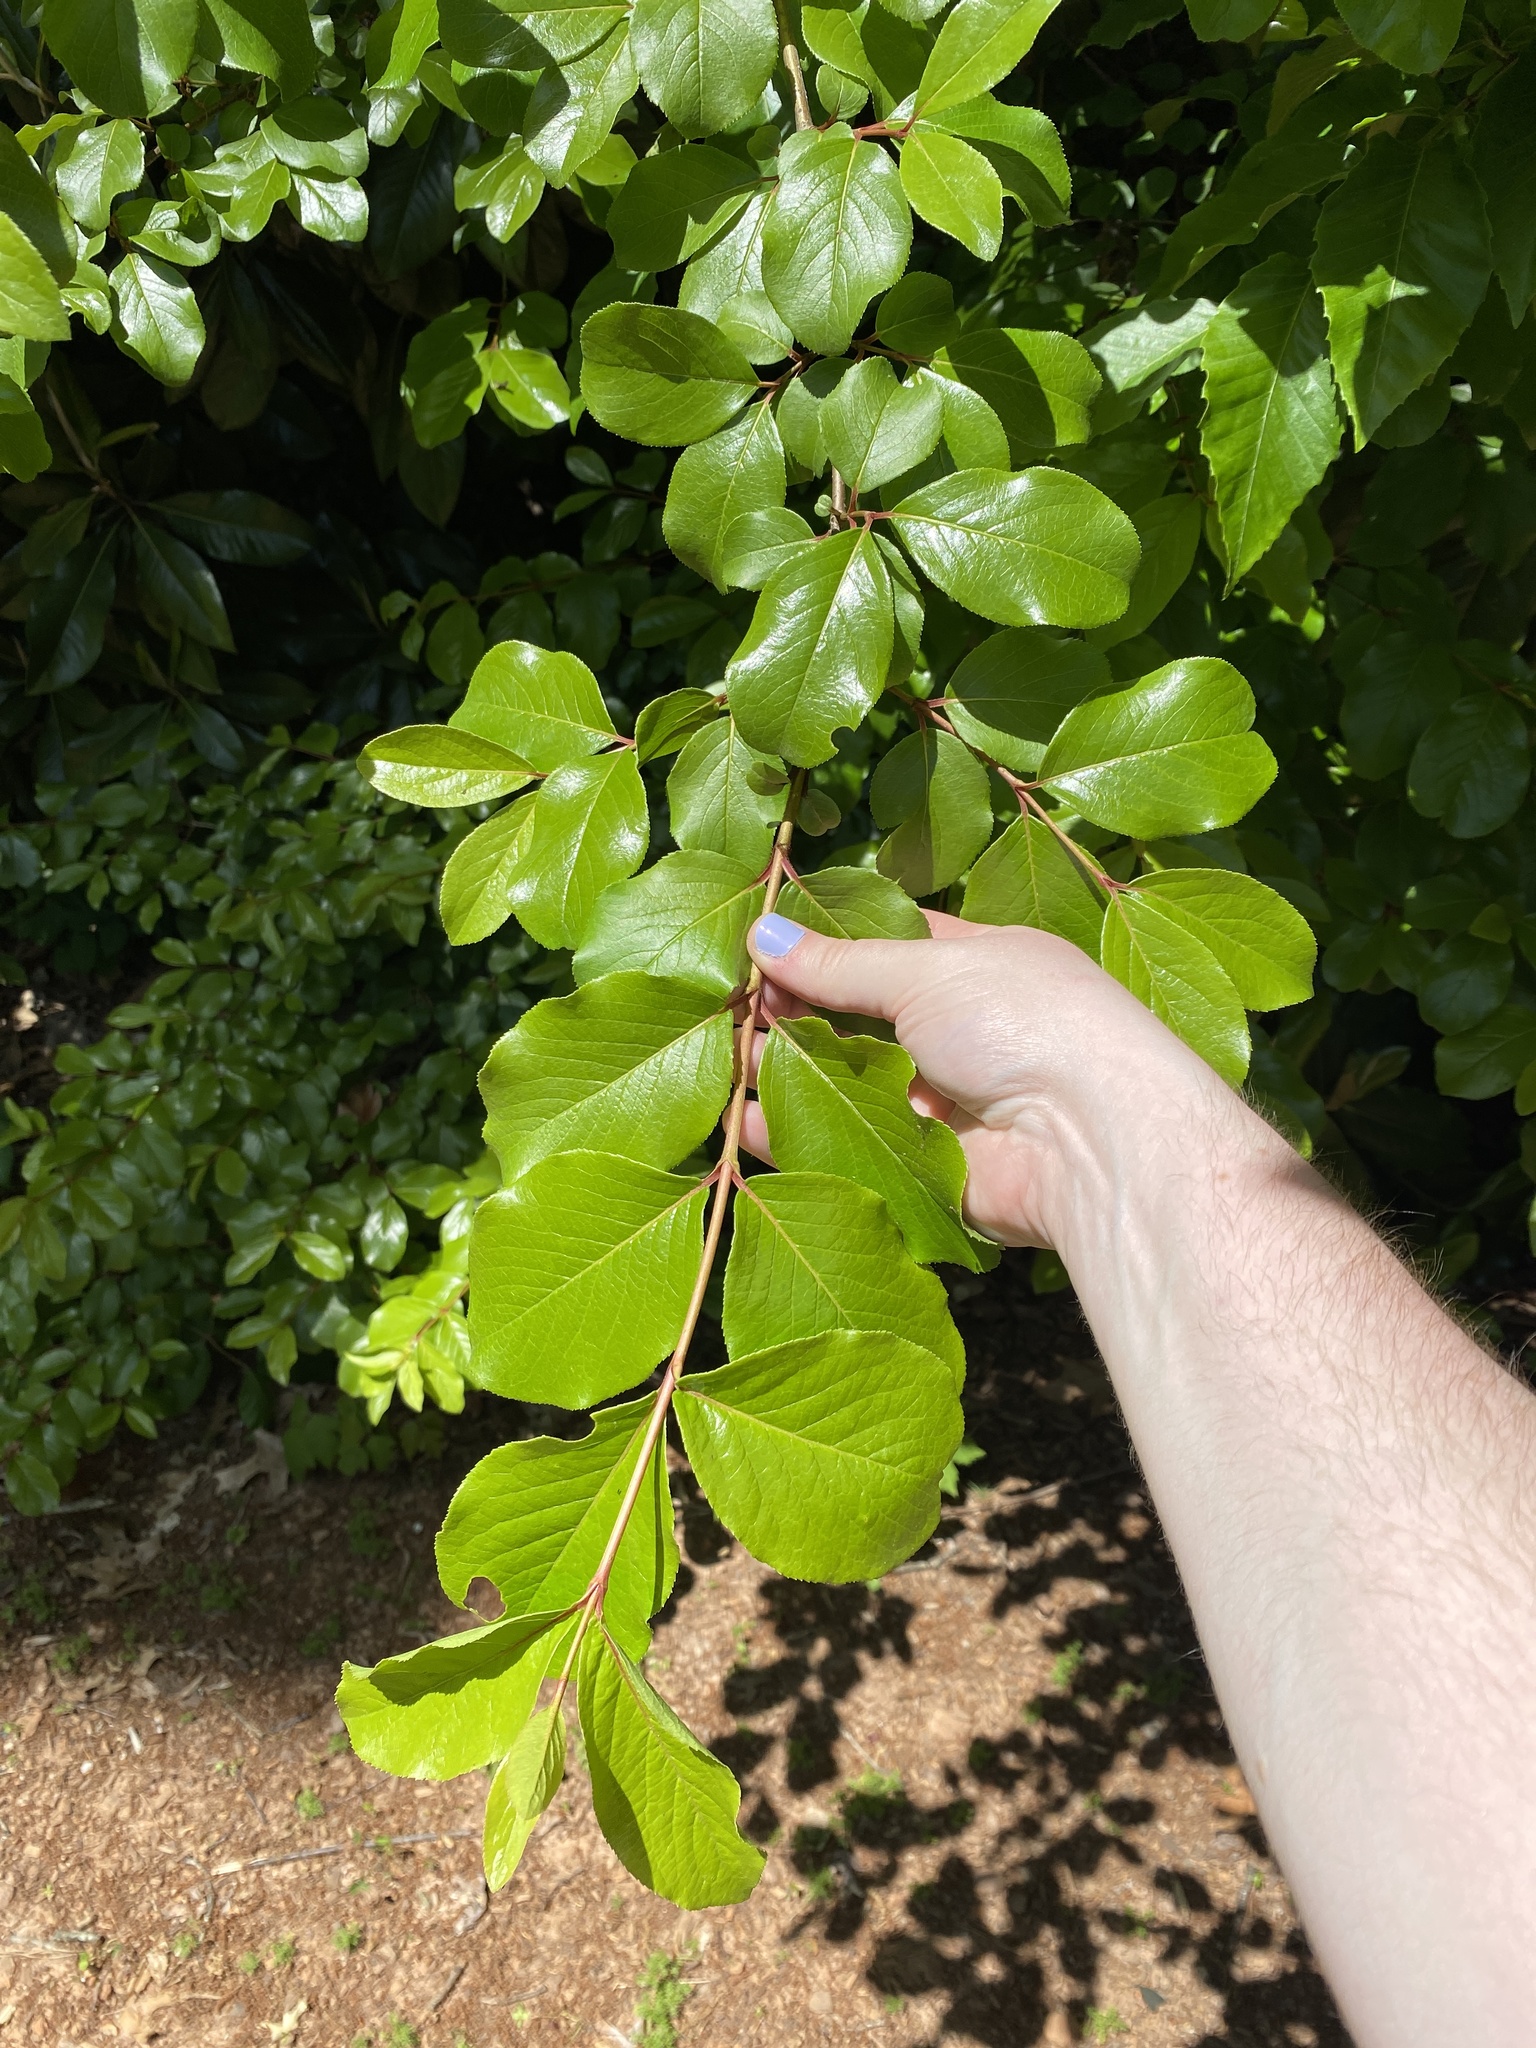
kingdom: Plantae
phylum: Tracheophyta
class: Magnoliopsida
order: Dipsacales
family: Viburnaceae
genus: Viburnum
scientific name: Viburnum rufidulum
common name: Blue haw
